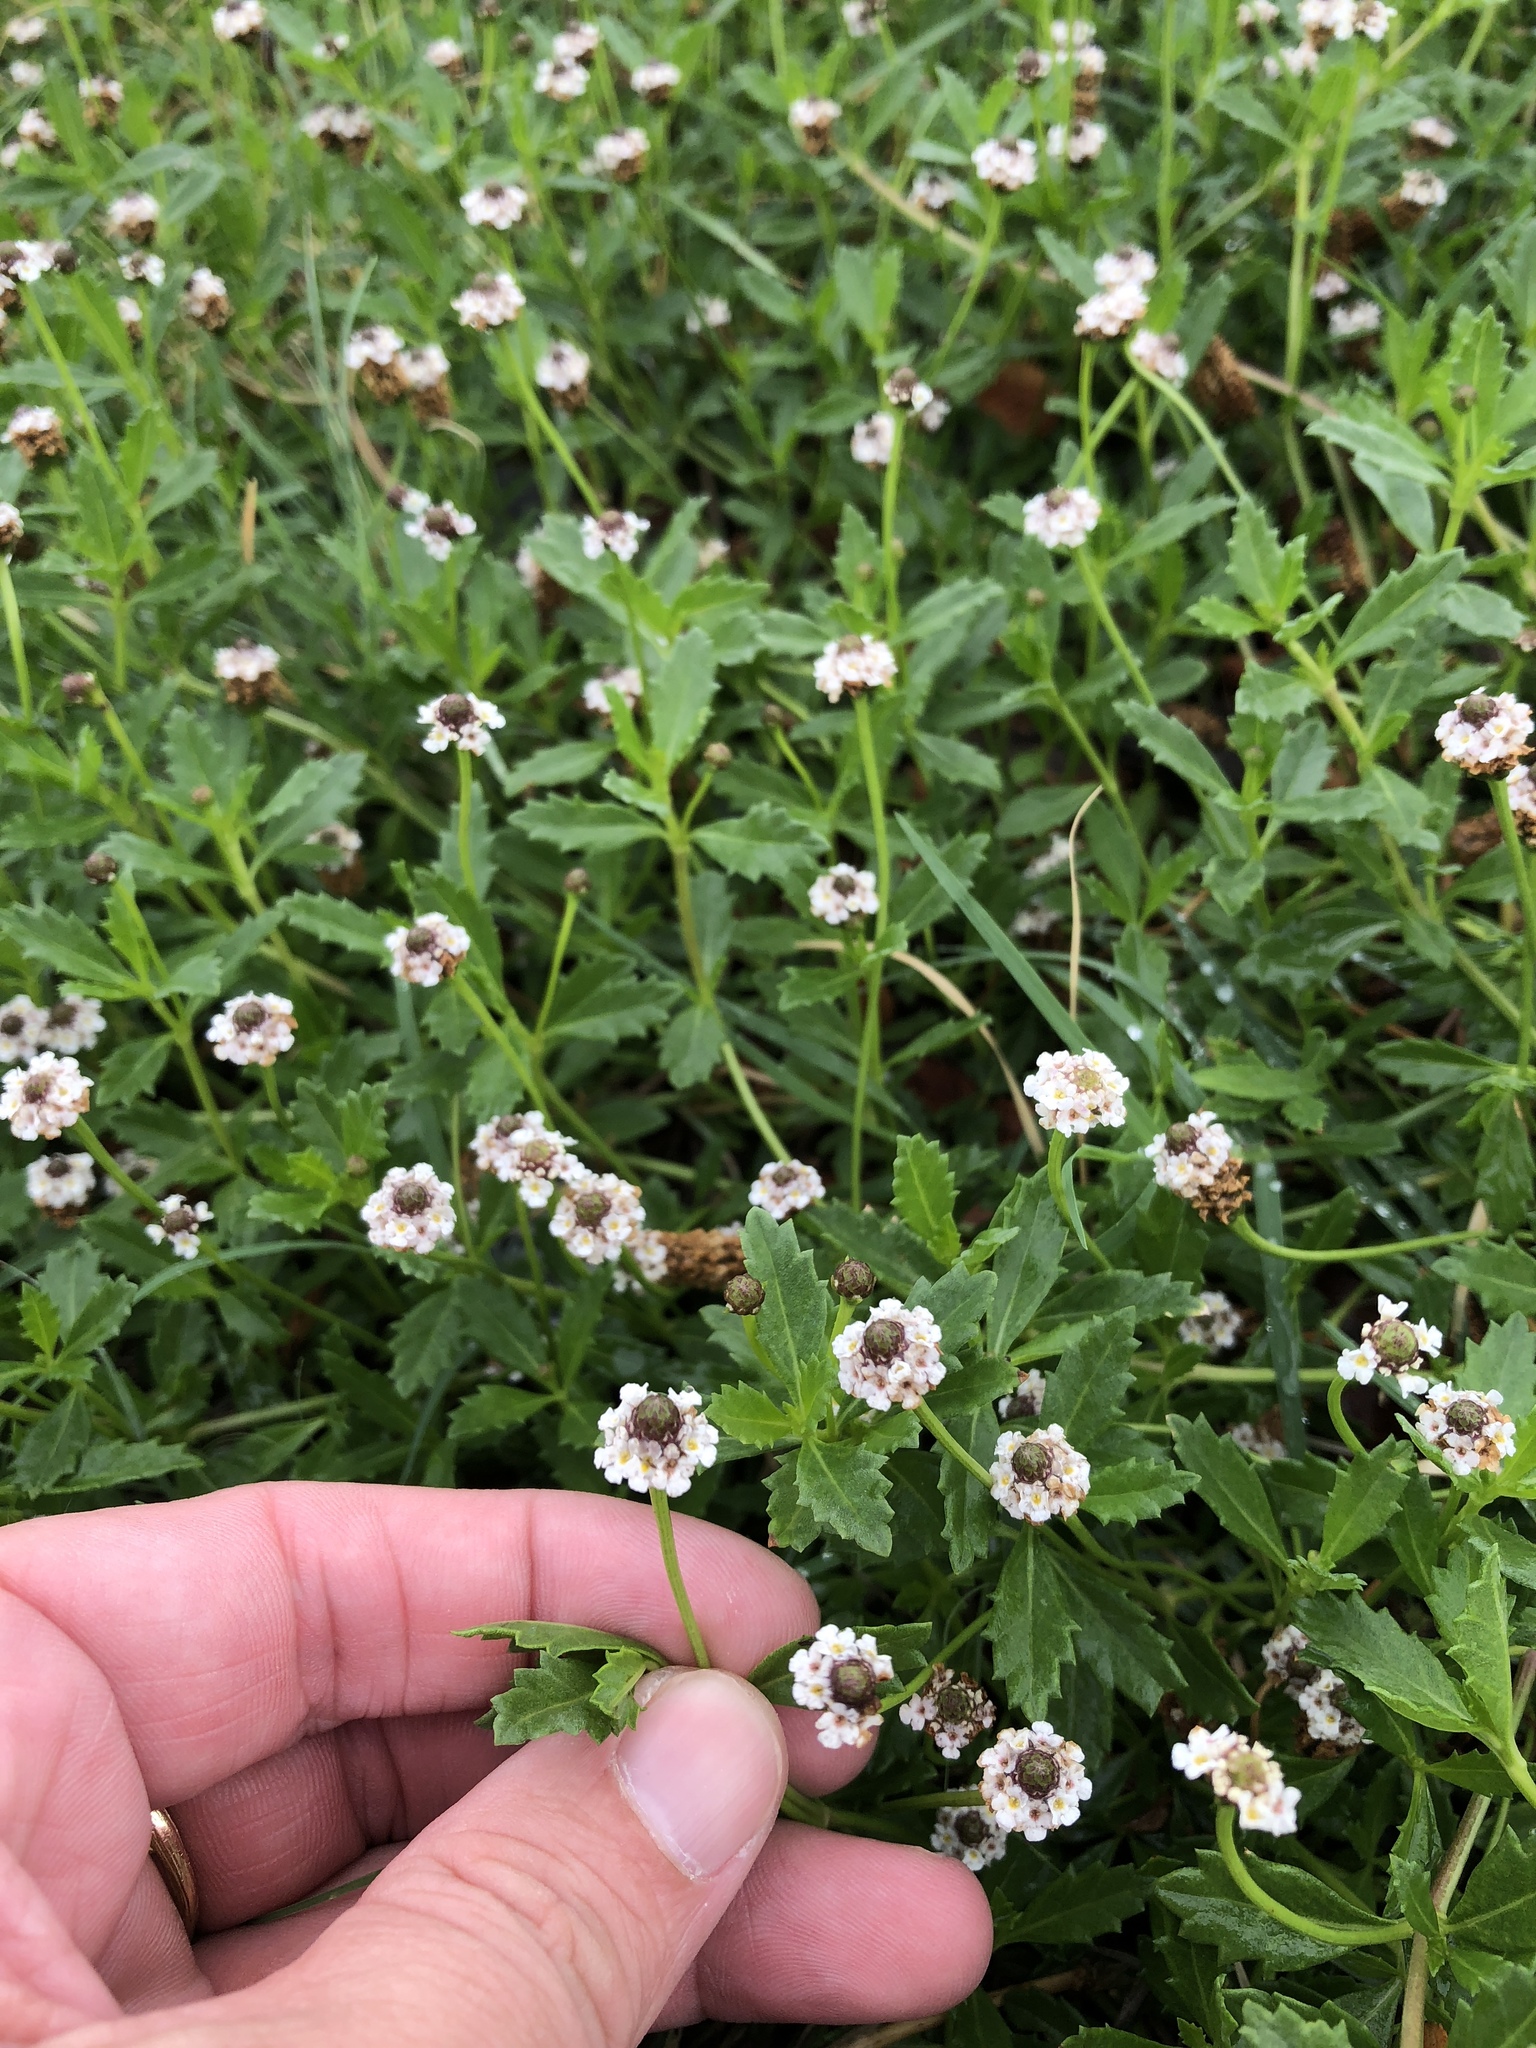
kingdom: Plantae
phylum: Tracheophyta
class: Magnoliopsida
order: Lamiales
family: Verbenaceae
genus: Phyla
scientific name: Phyla nodiflora
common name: Frogfruit
